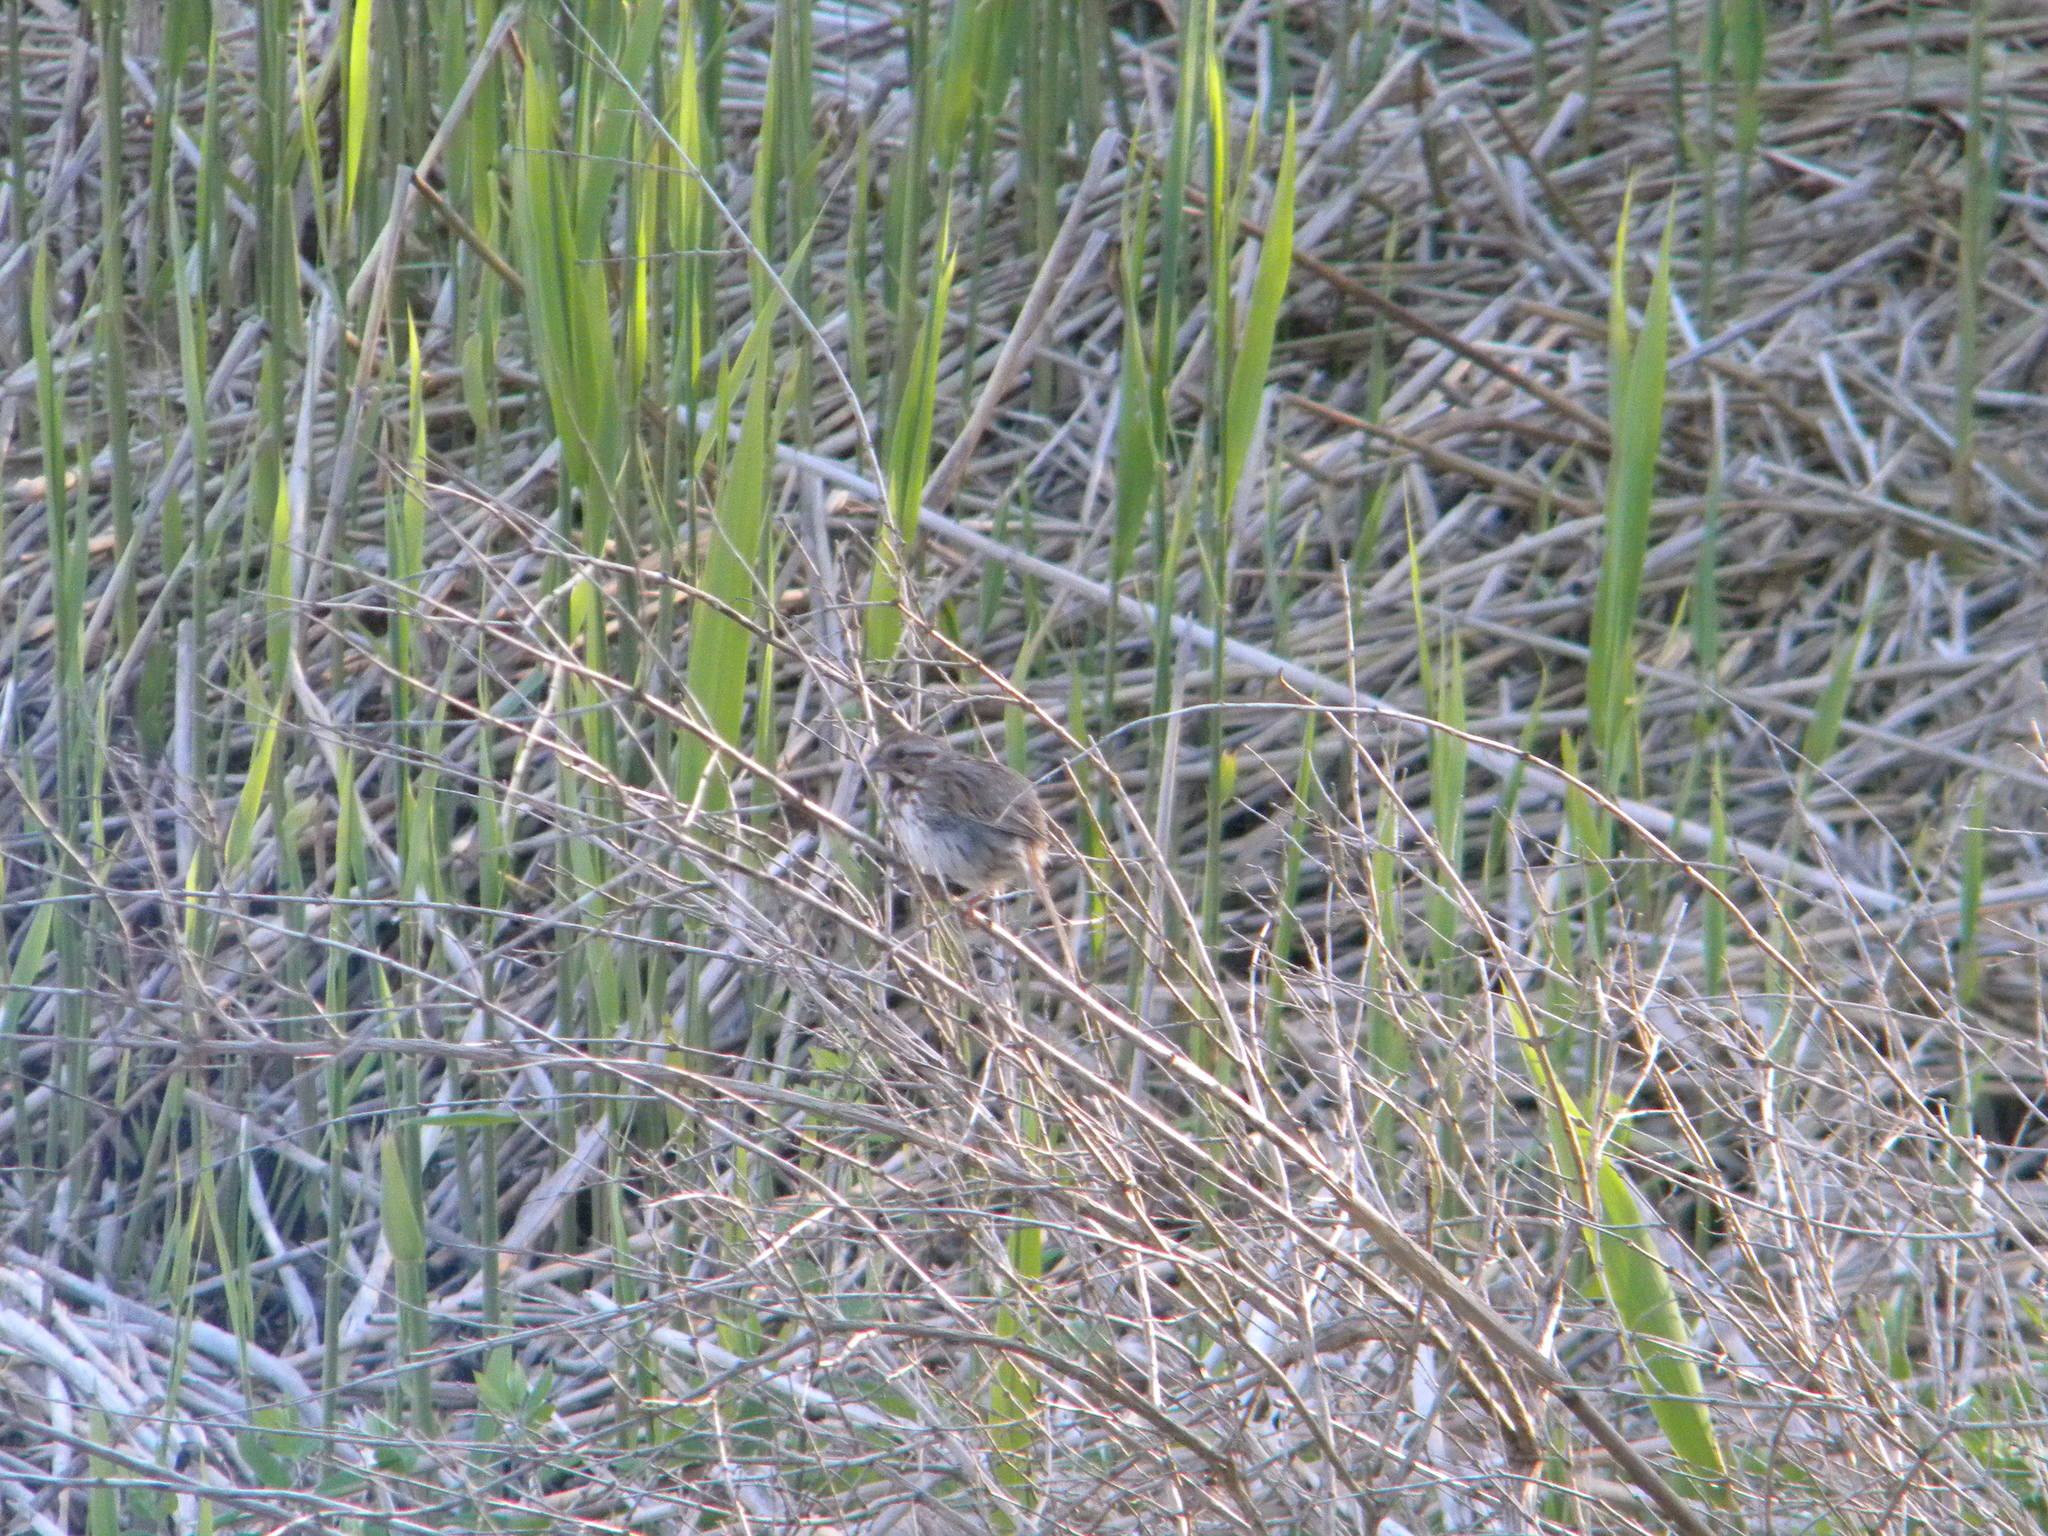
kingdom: Animalia
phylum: Chordata
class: Aves
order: Passeriformes
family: Passerellidae
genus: Melospiza
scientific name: Melospiza melodia
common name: Song sparrow
